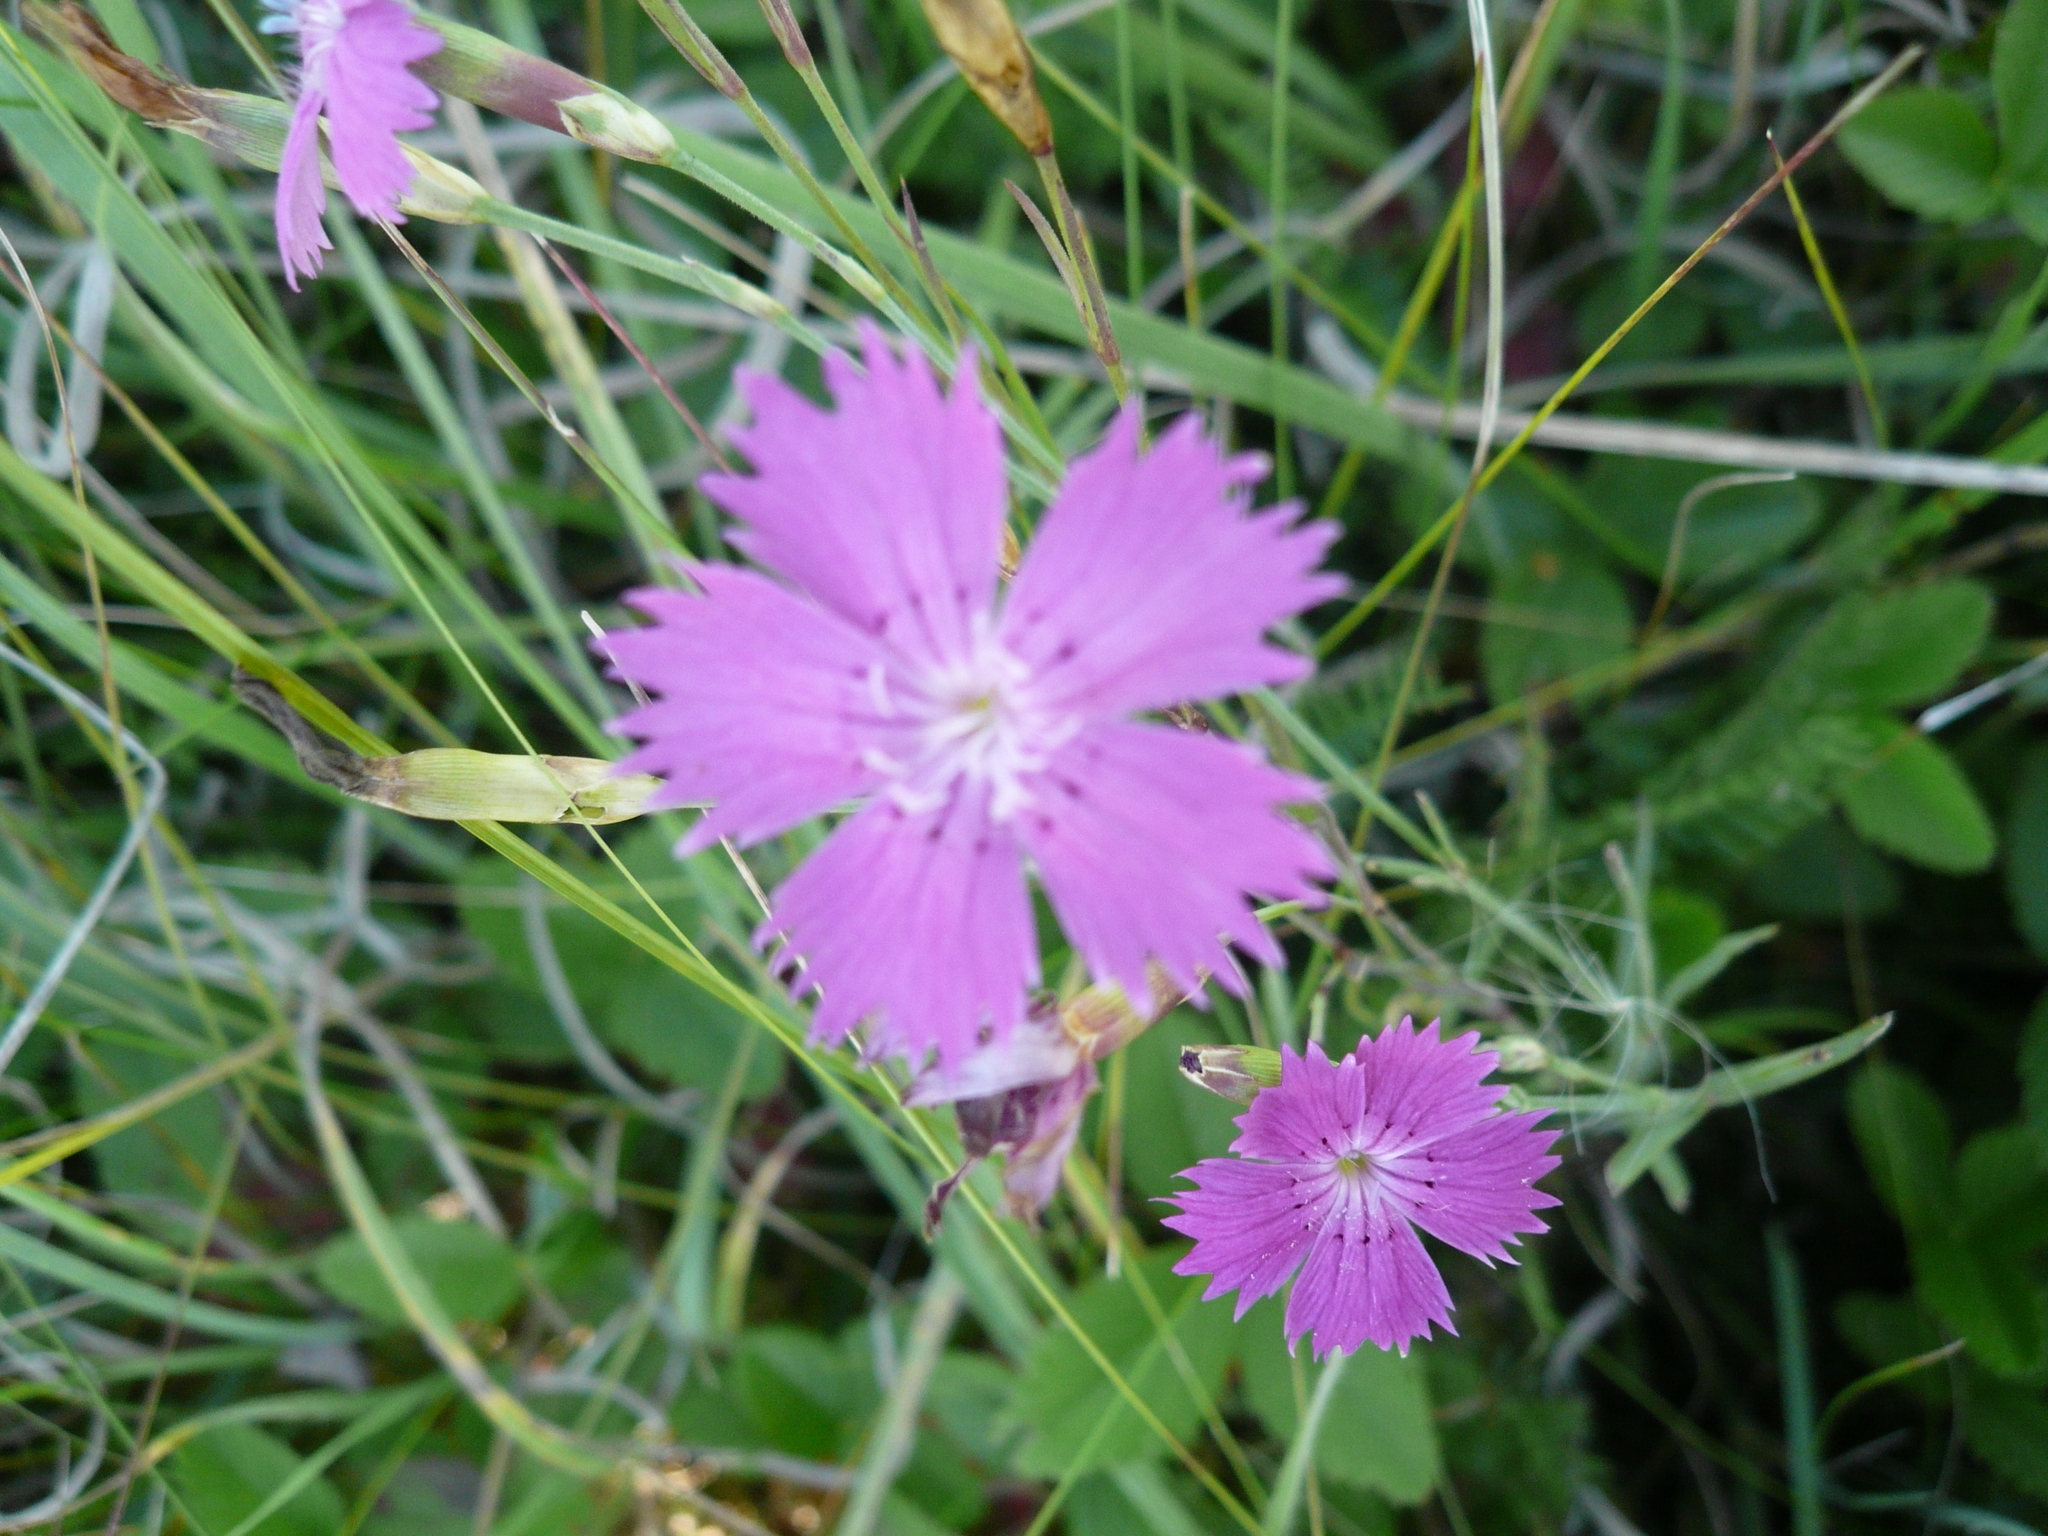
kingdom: Plantae
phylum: Tracheophyta
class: Magnoliopsida
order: Caryophyllales
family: Caryophyllaceae
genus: Dianthus
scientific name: Dianthus campestris
